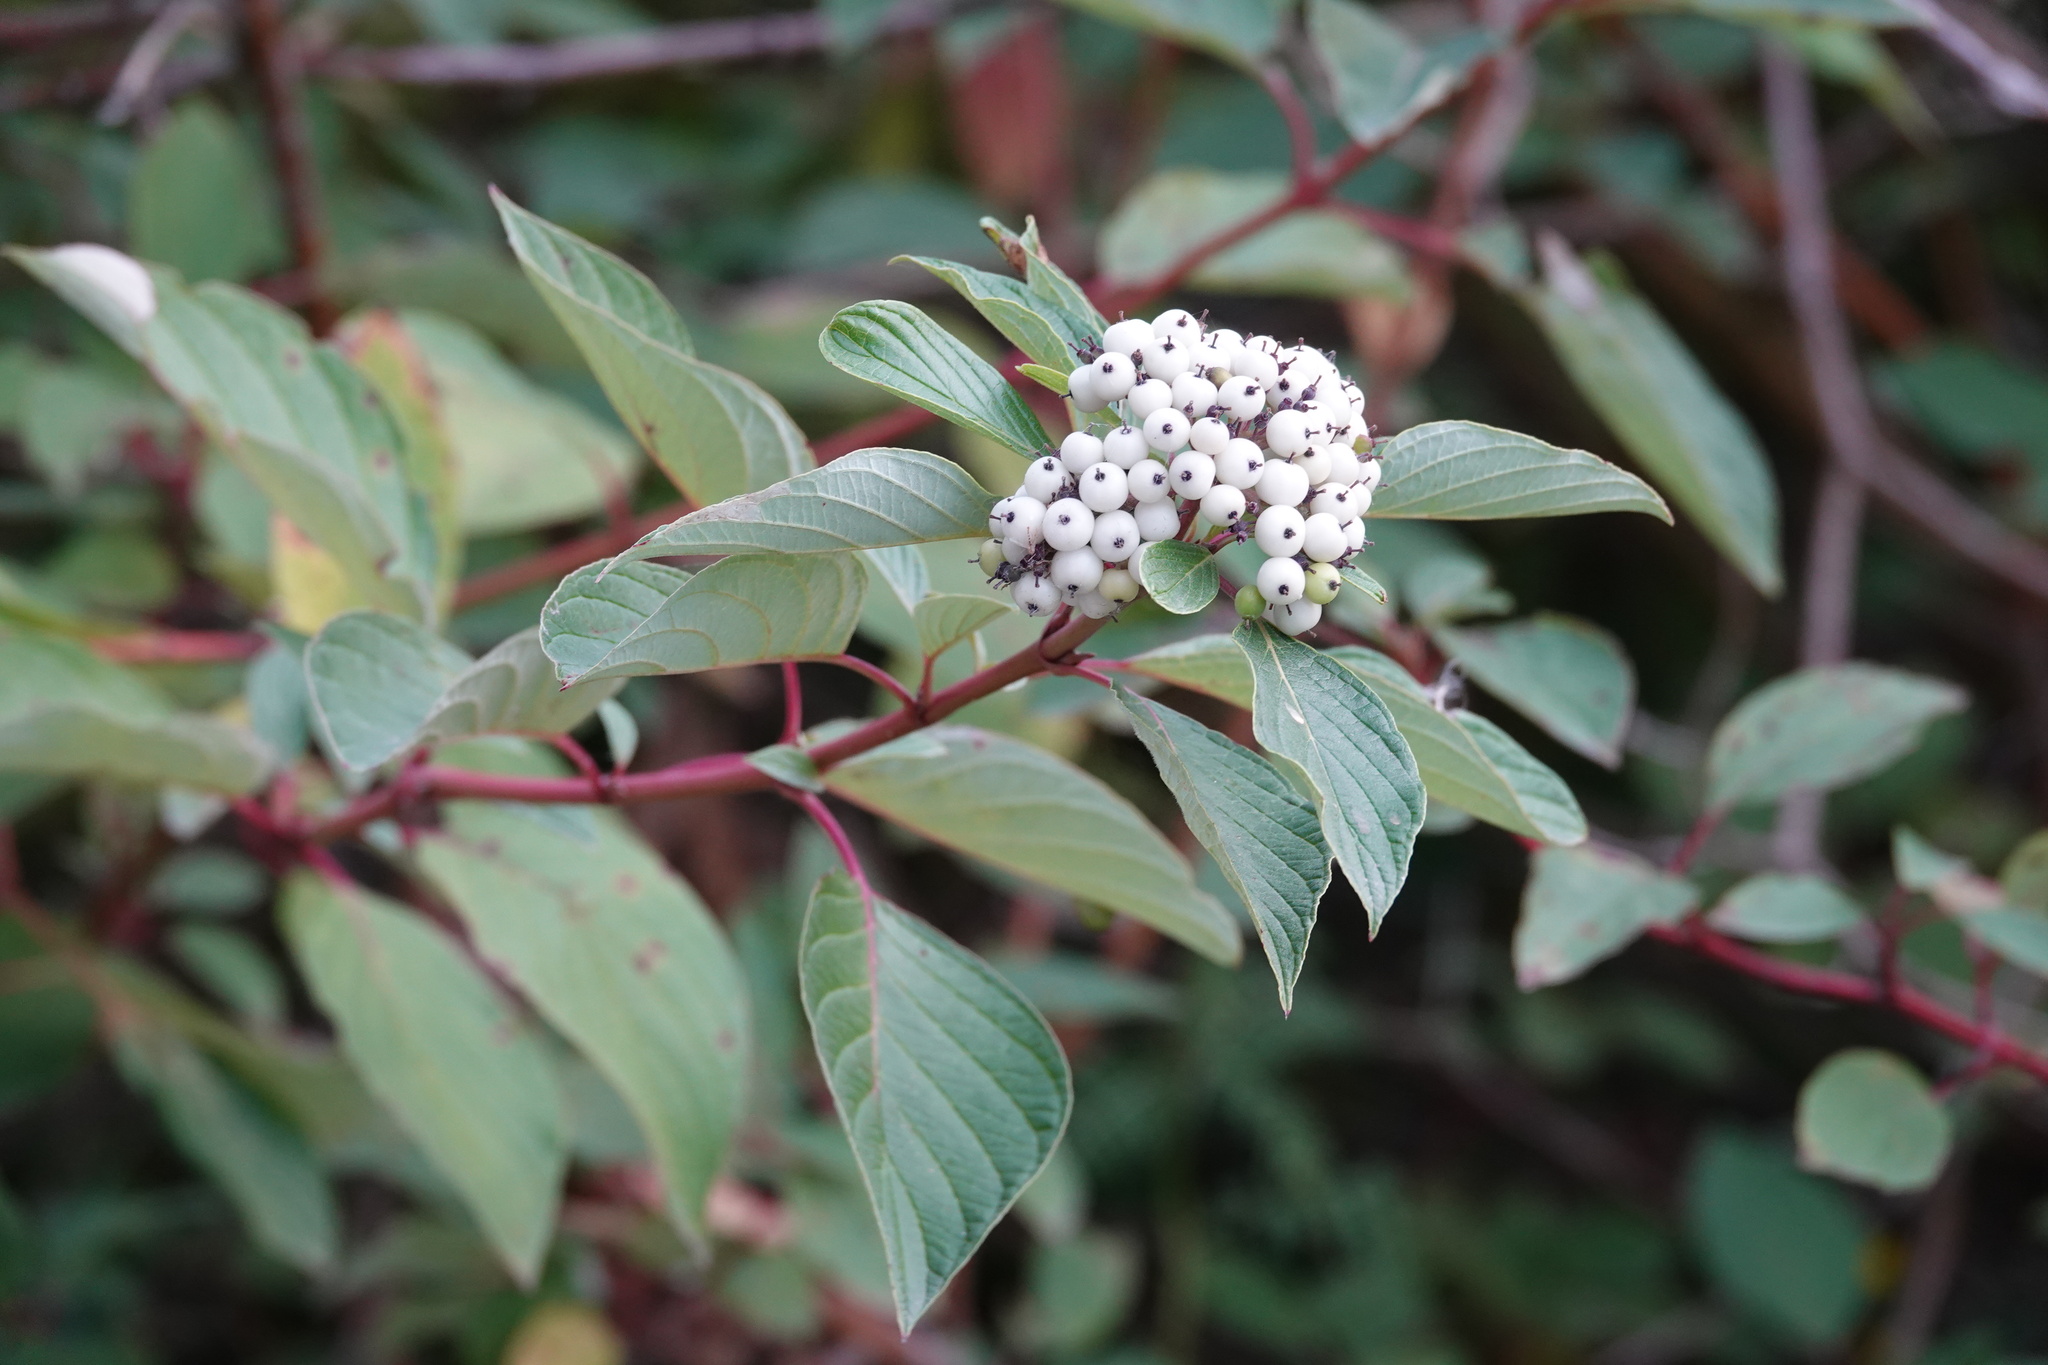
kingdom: Plantae
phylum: Tracheophyta
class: Magnoliopsida
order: Cornales
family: Cornaceae
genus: Cornus
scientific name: Cornus sericea
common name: Red-osier dogwood
